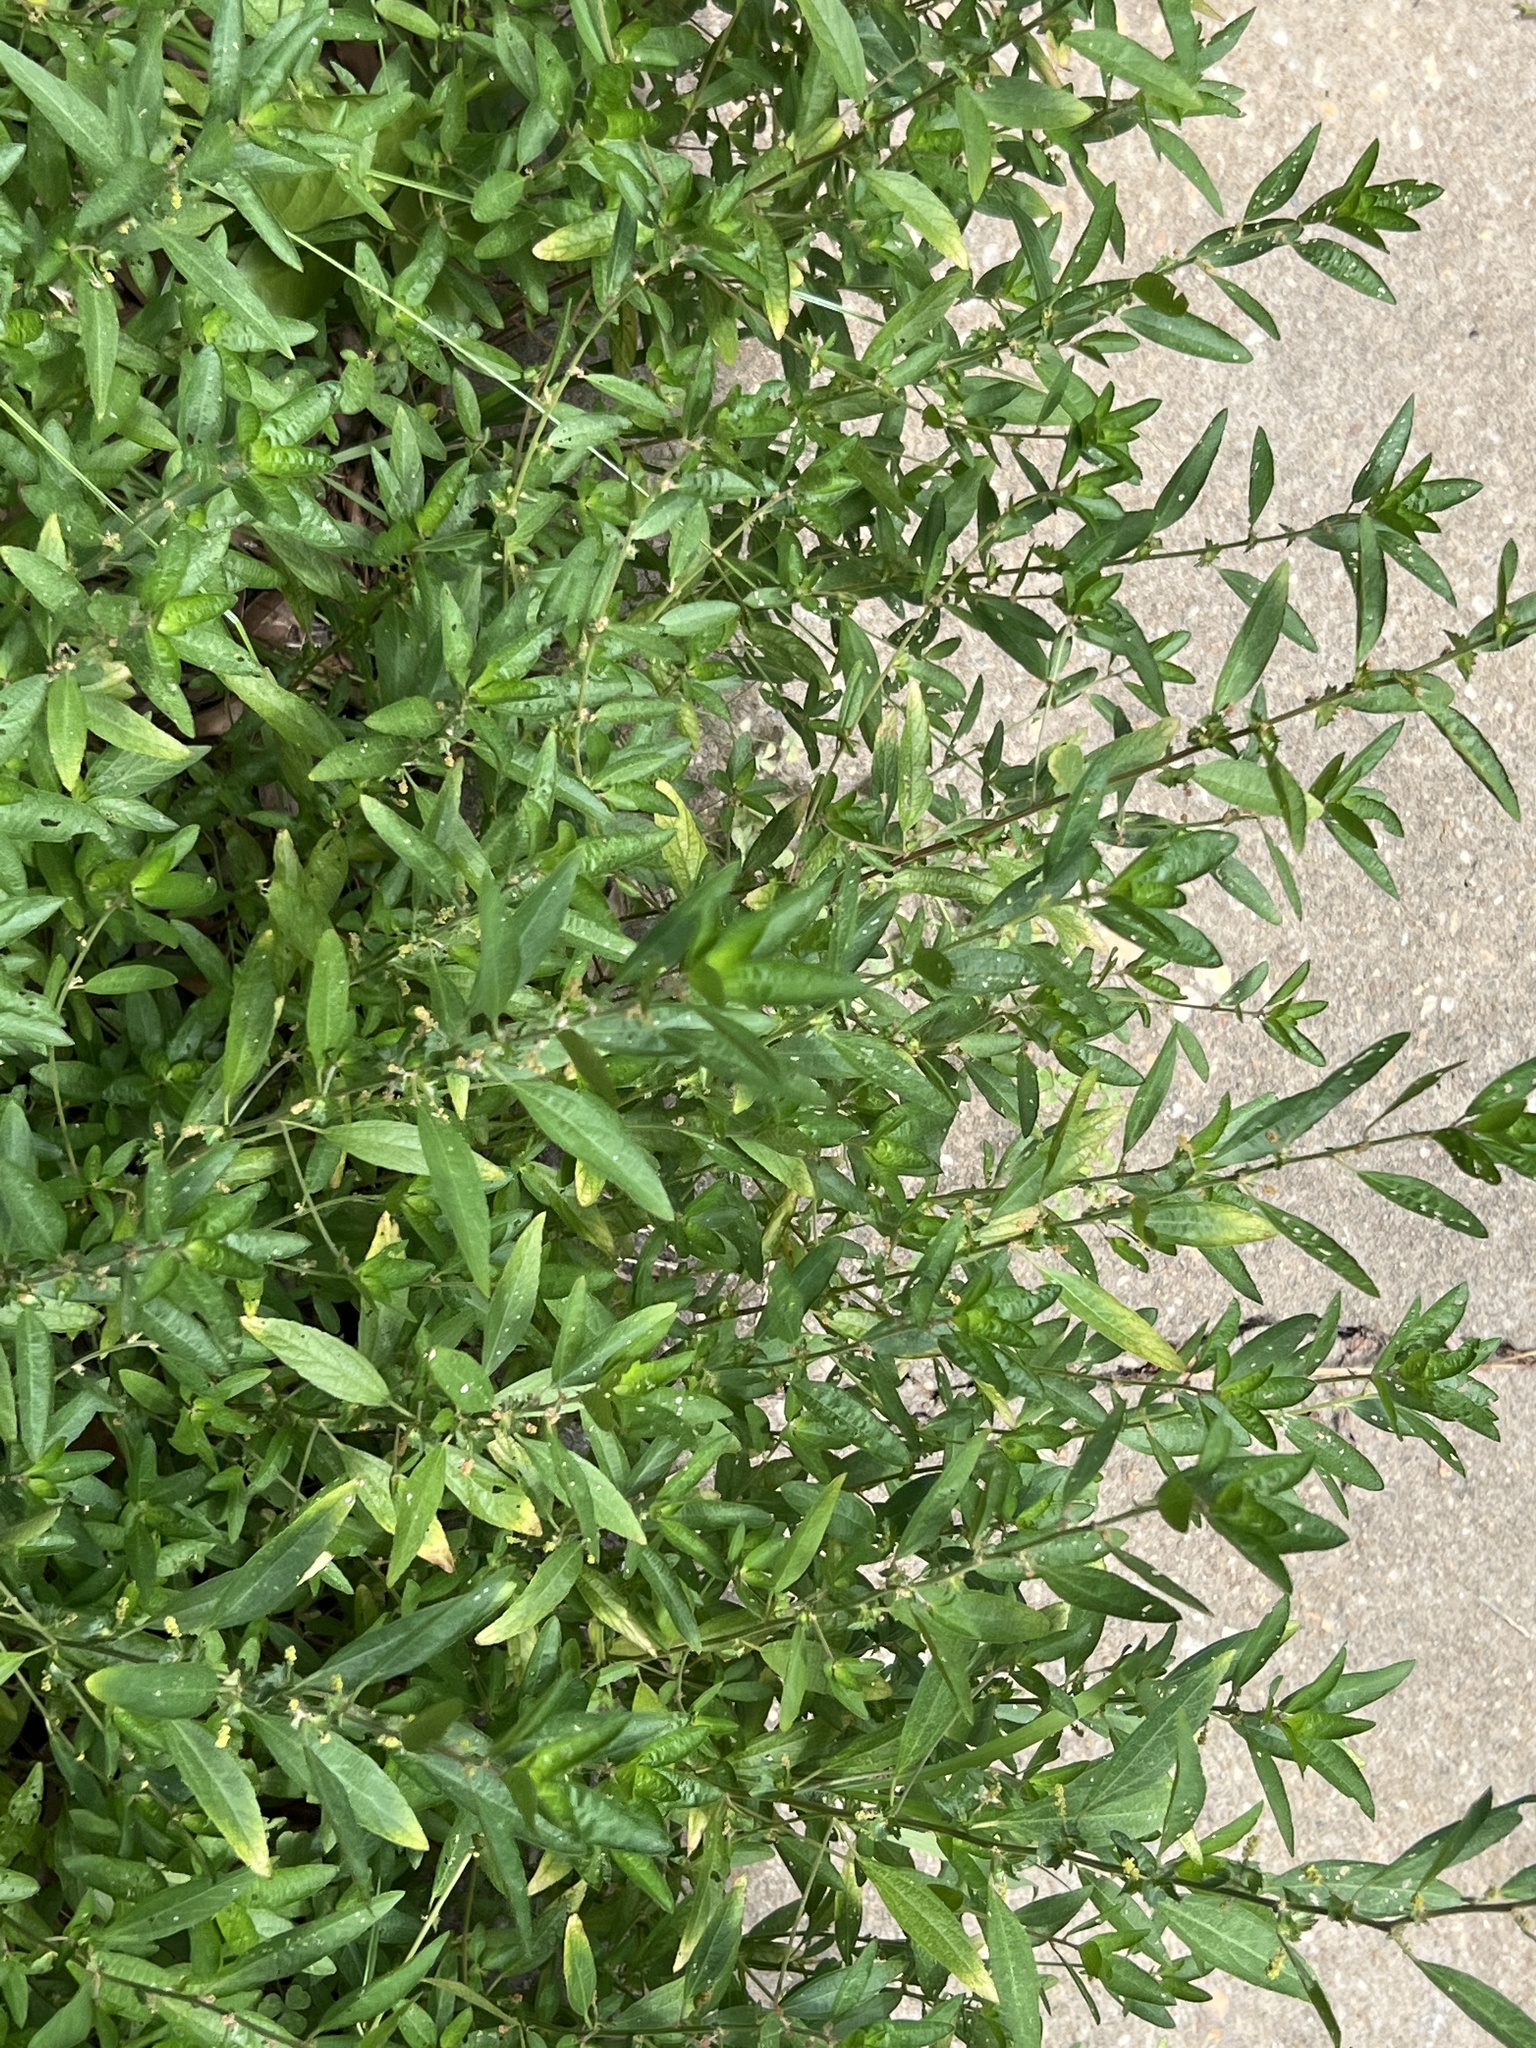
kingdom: Plantae
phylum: Tracheophyta
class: Magnoliopsida
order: Malpighiales
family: Euphorbiaceae
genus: Acalypha
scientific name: Acalypha gracilens
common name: Slender three-seeded mercury
